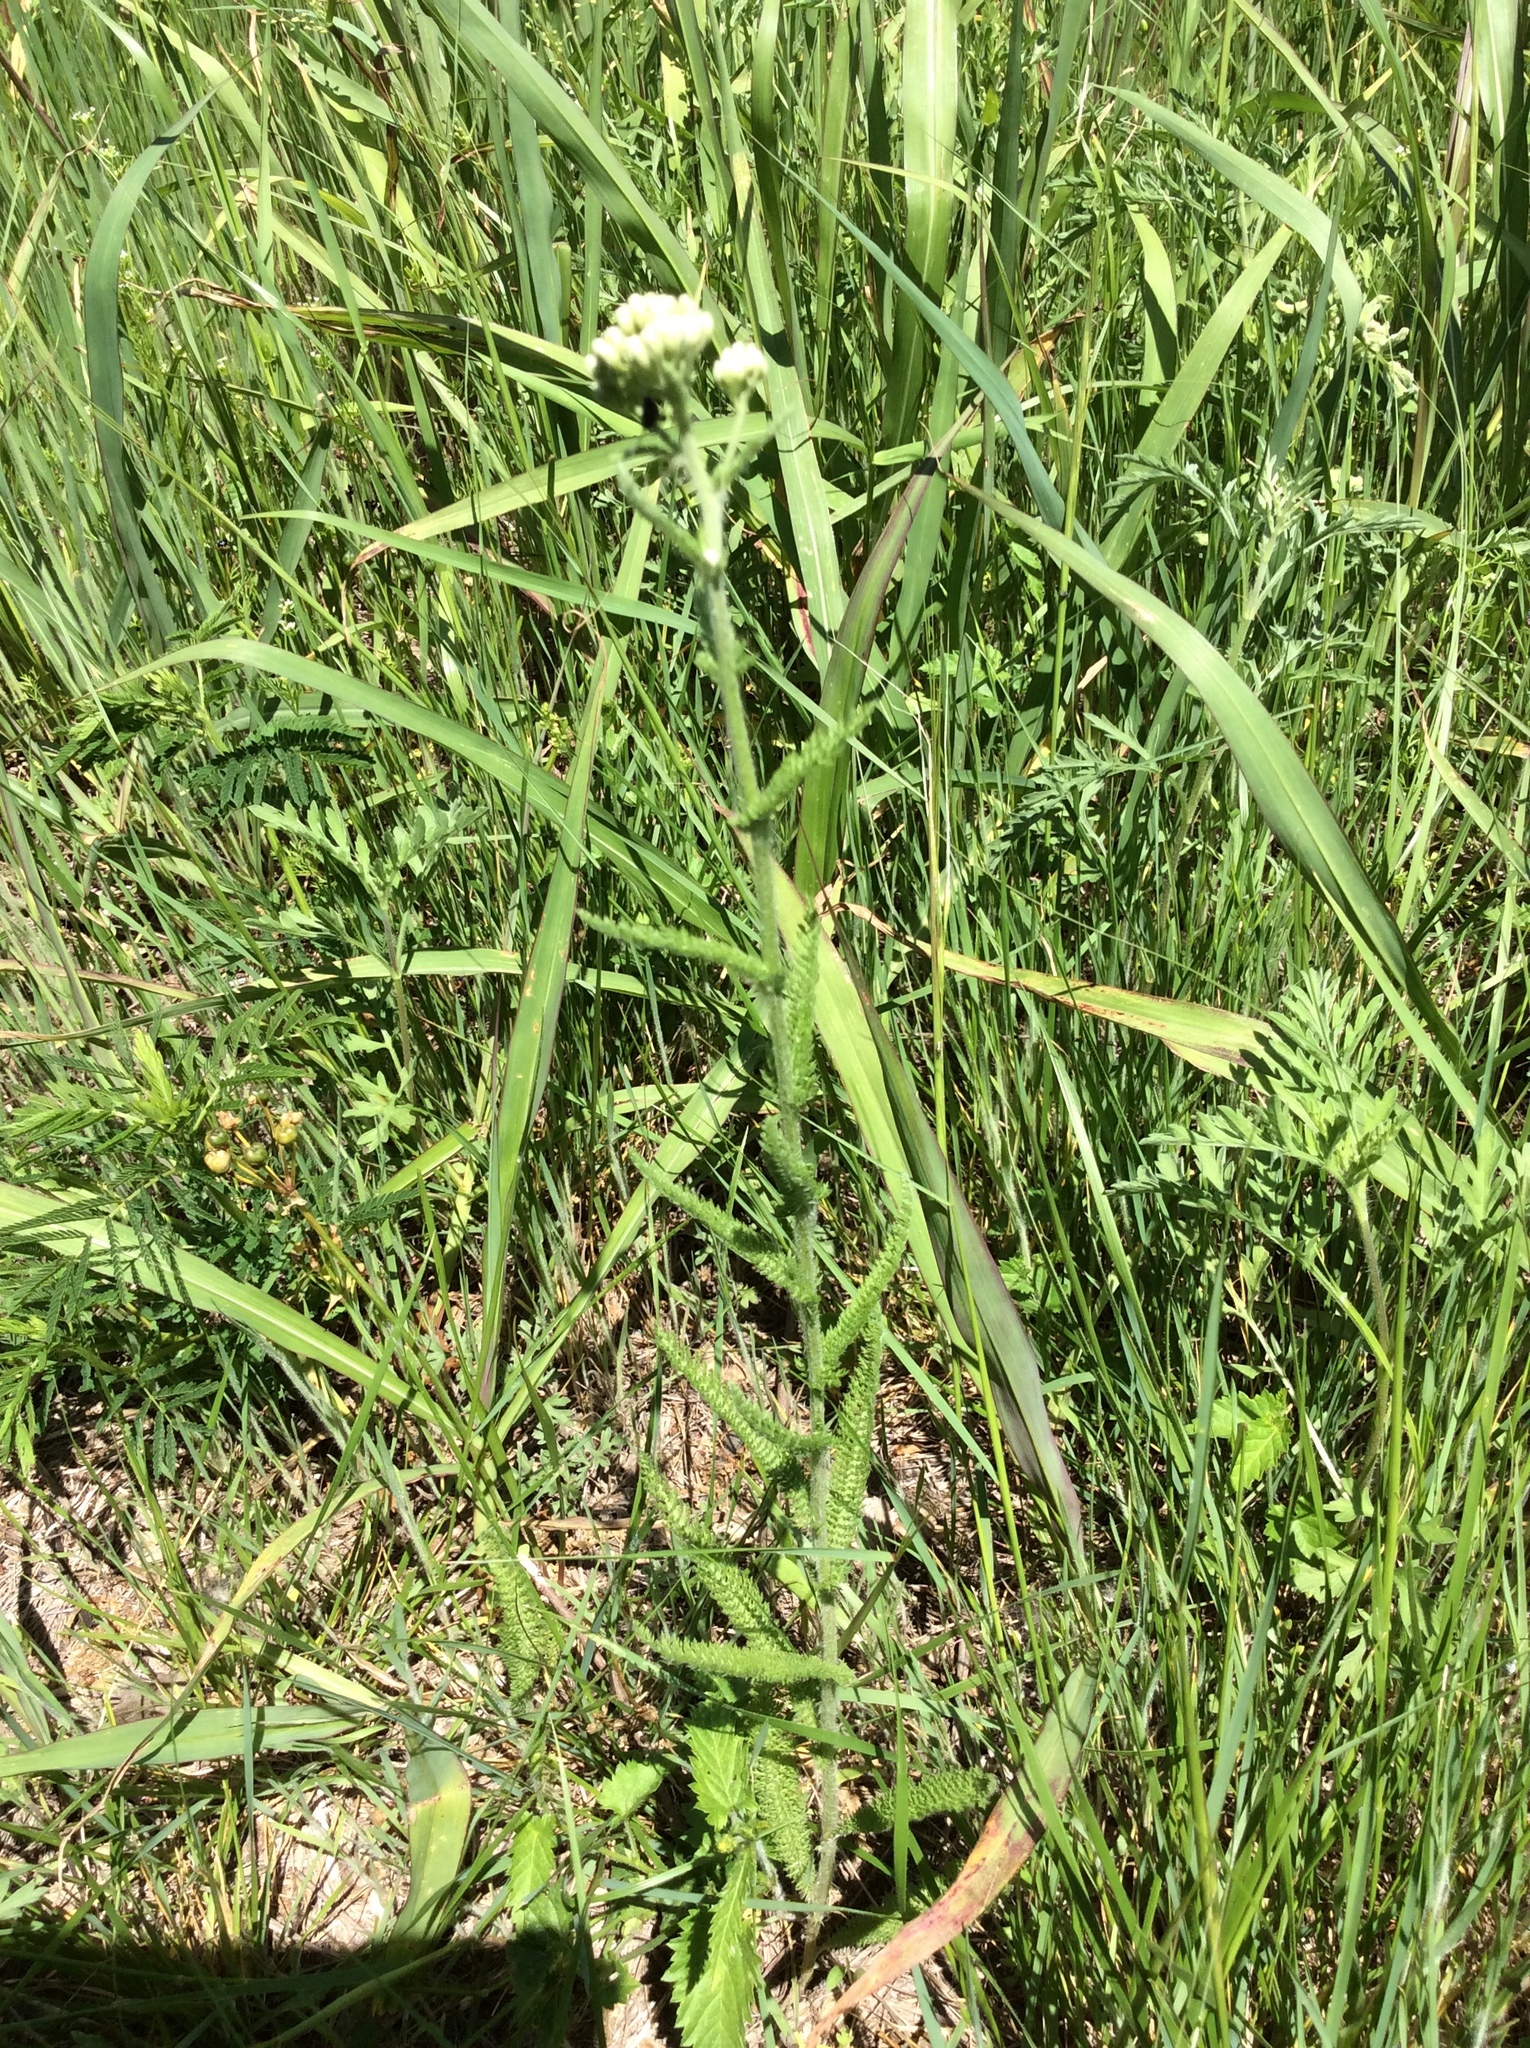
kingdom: Plantae
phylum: Tracheophyta
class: Magnoliopsida
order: Asterales
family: Asteraceae
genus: Achillea
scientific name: Achillea millefolium
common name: Yarrow
